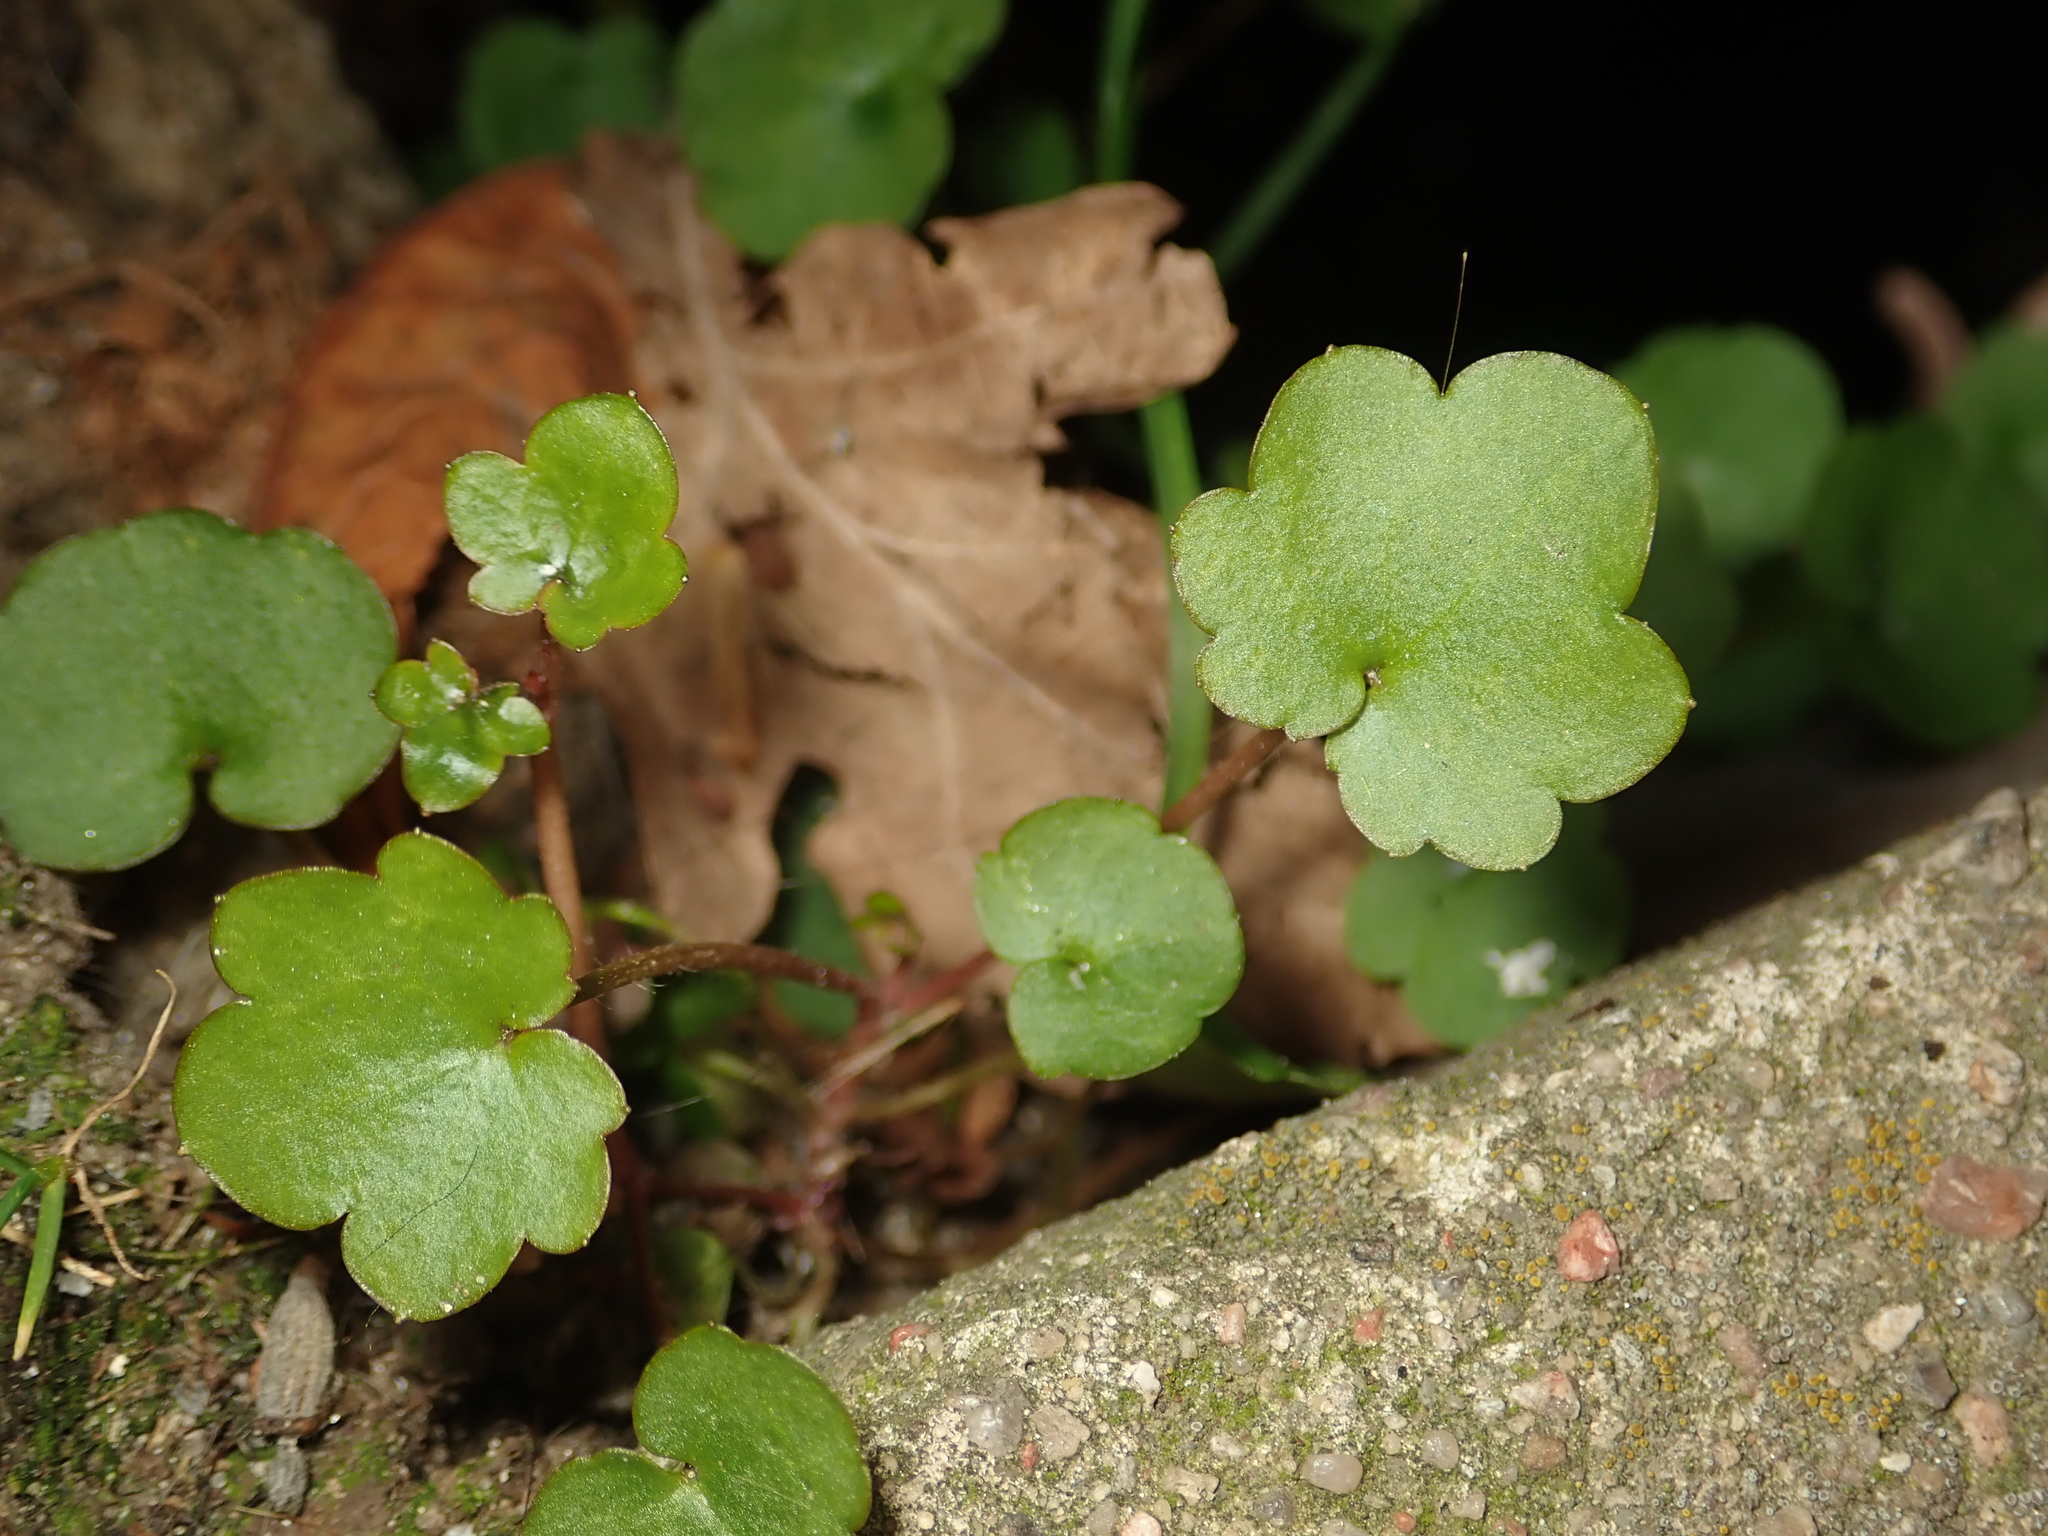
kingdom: Plantae
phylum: Tracheophyta
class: Magnoliopsida
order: Lamiales
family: Plantaginaceae
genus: Cymbalaria
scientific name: Cymbalaria muralis
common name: Ivy-leaved toadflax
